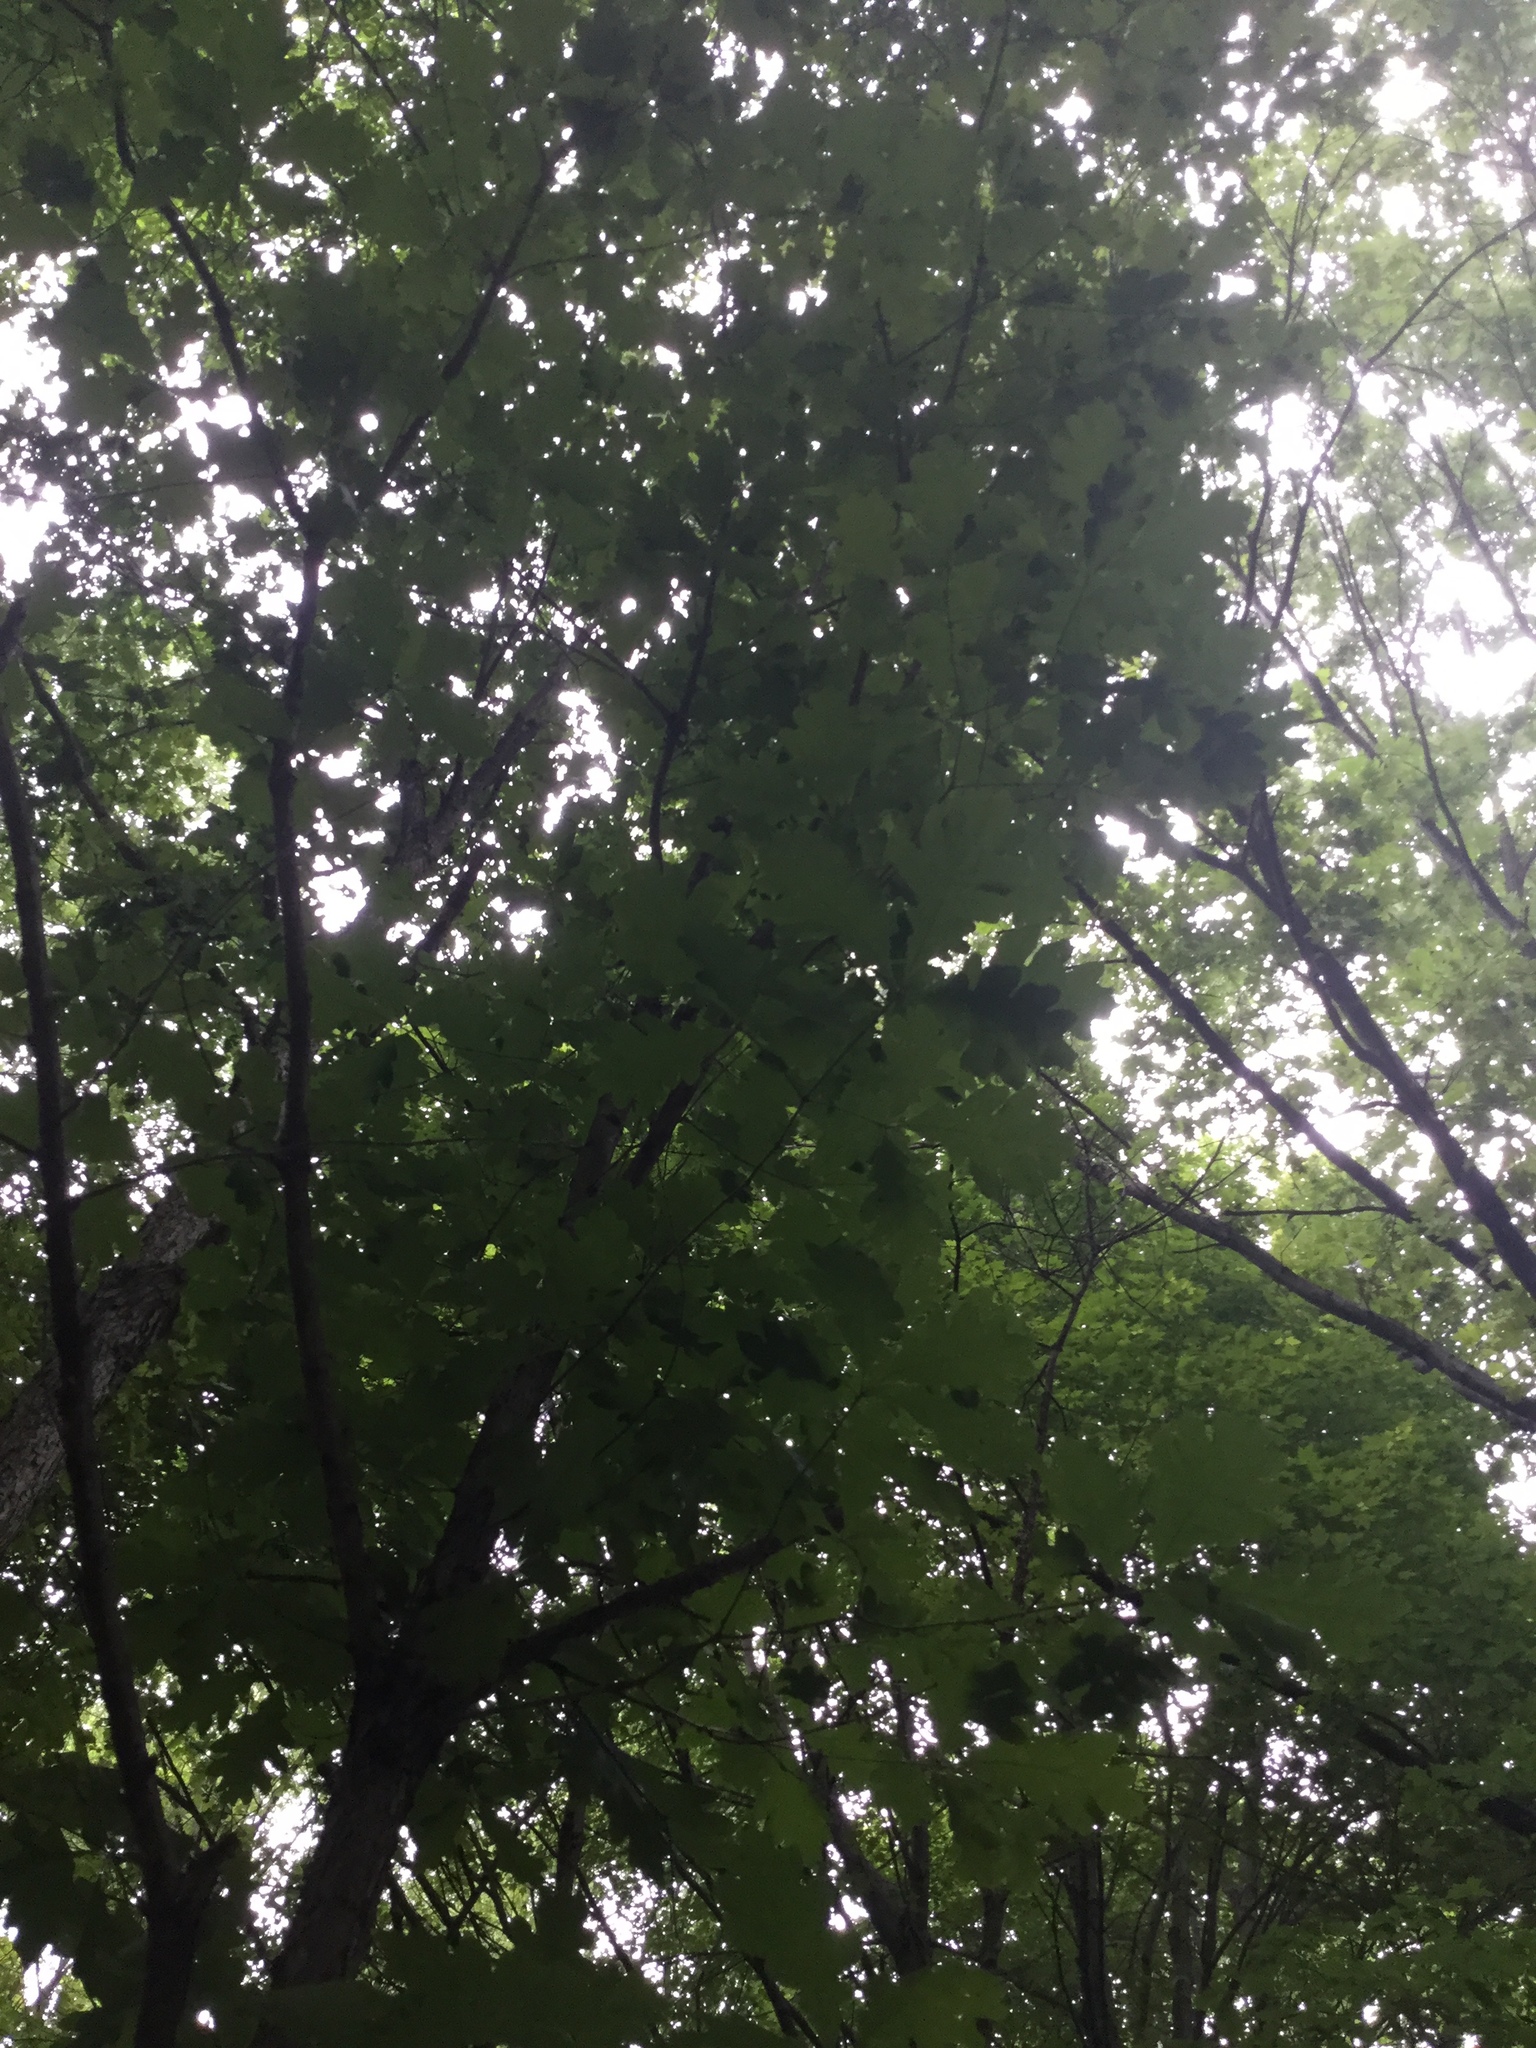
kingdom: Plantae
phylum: Tracheophyta
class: Magnoliopsida
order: Fagales
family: Fagaceae
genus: Quercus
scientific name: Quercus alba
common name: White oak
